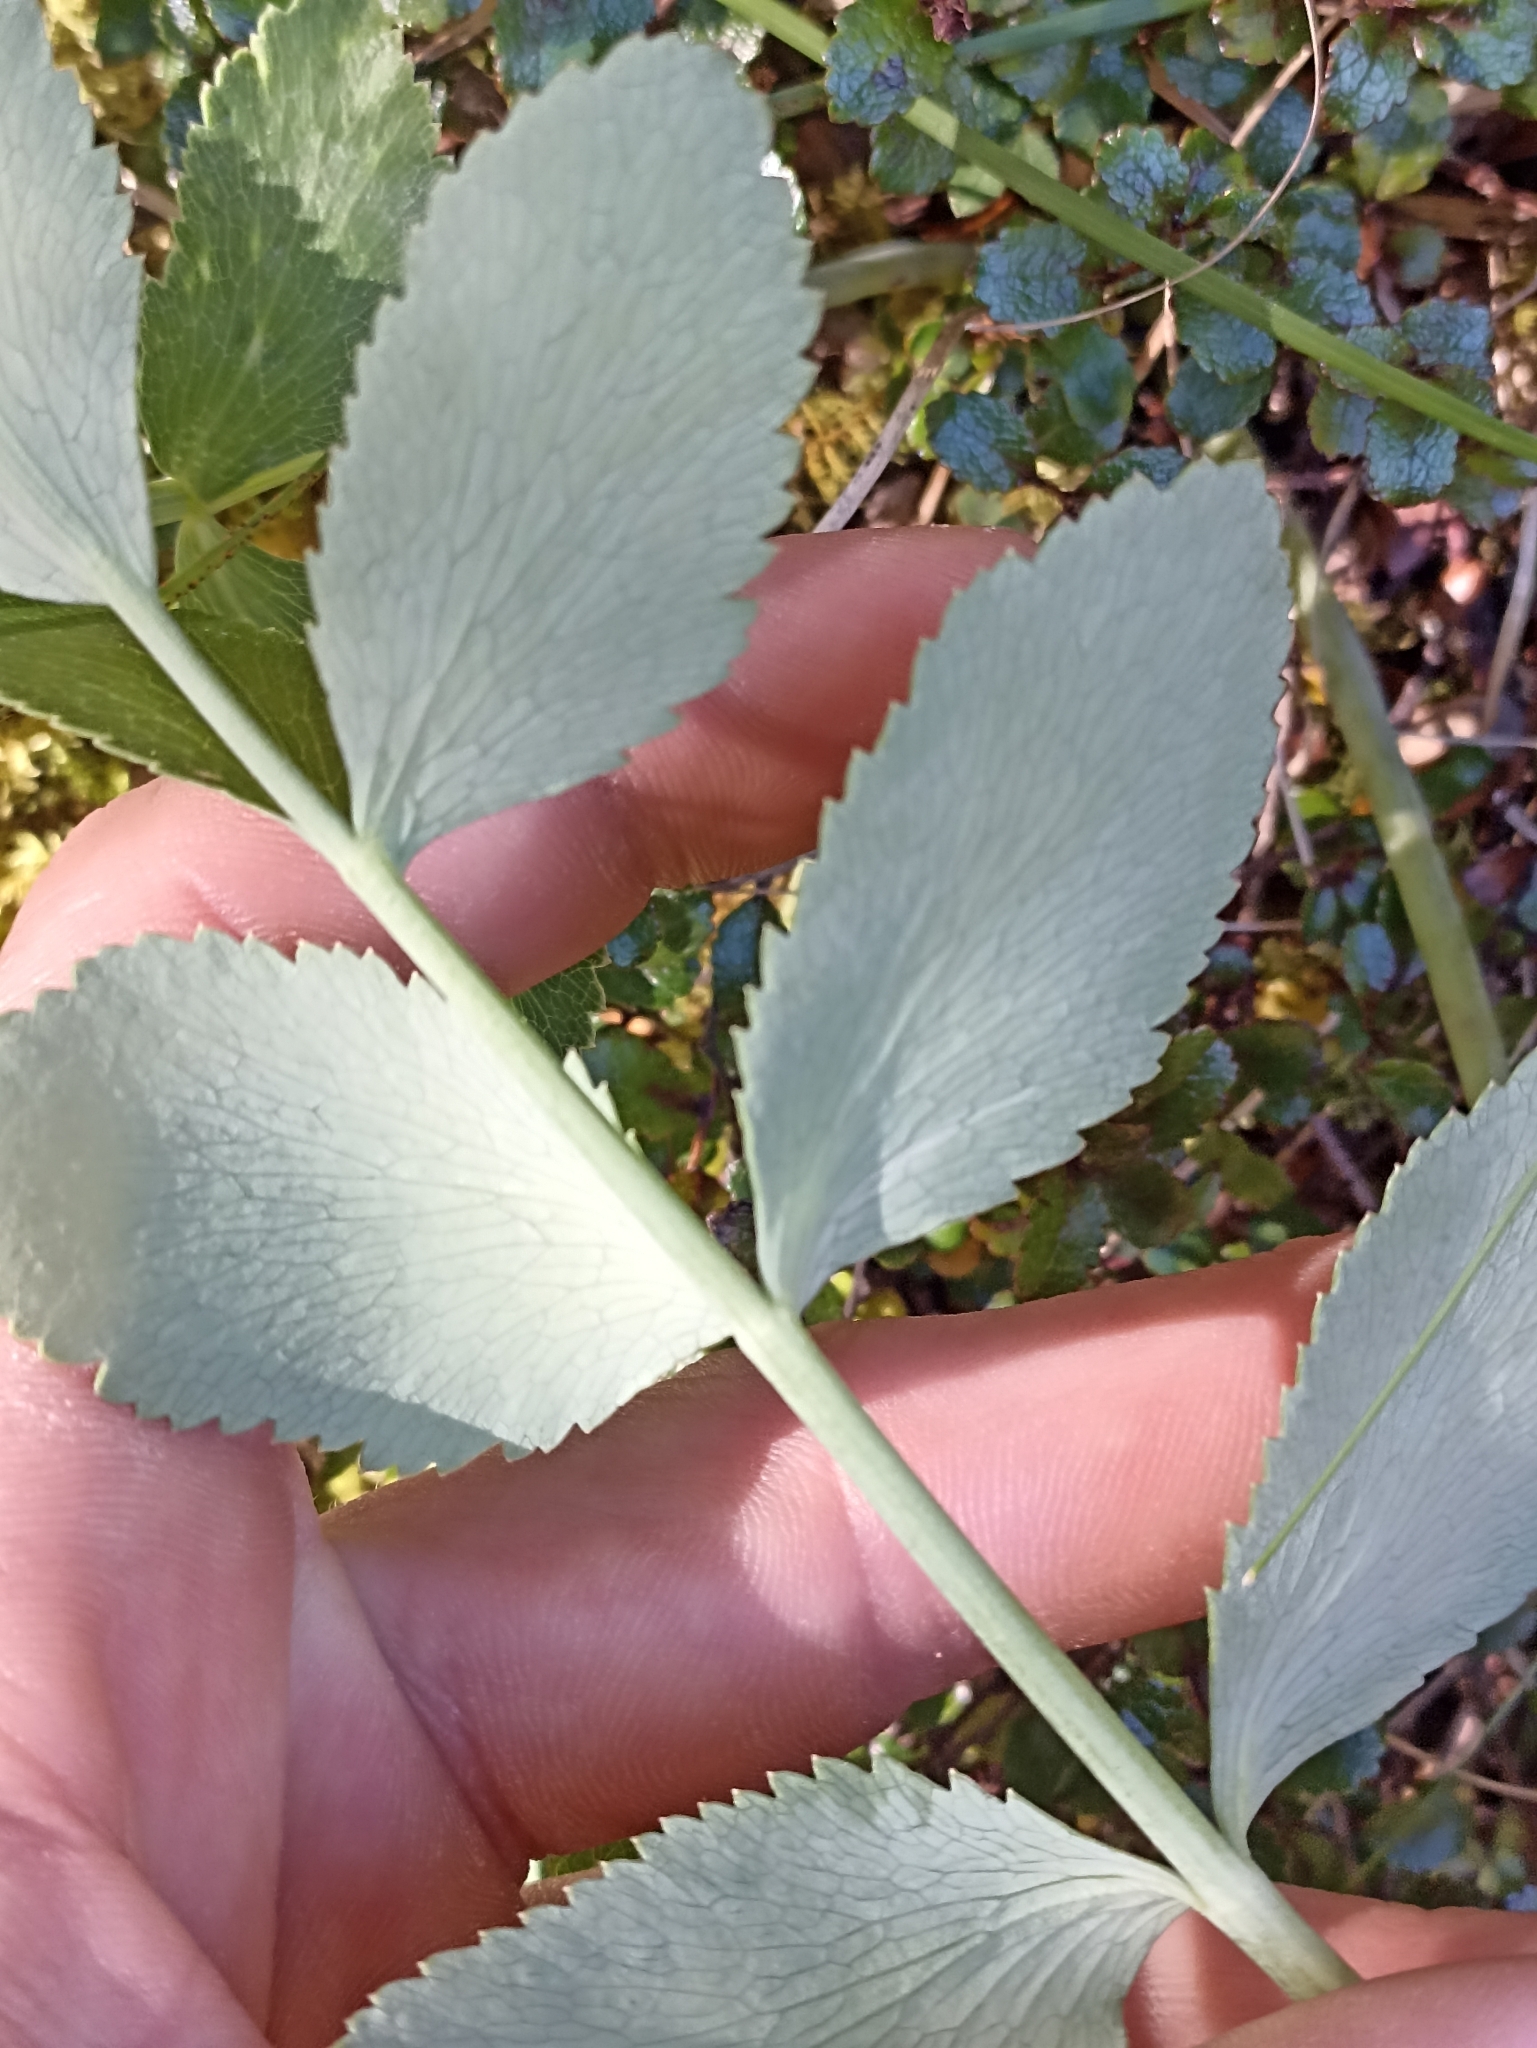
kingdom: Plantae
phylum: Tracheophyta
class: Magnoliopsida
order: Apiales
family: Apiaceae
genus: Gingidia
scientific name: Gingidia montana
